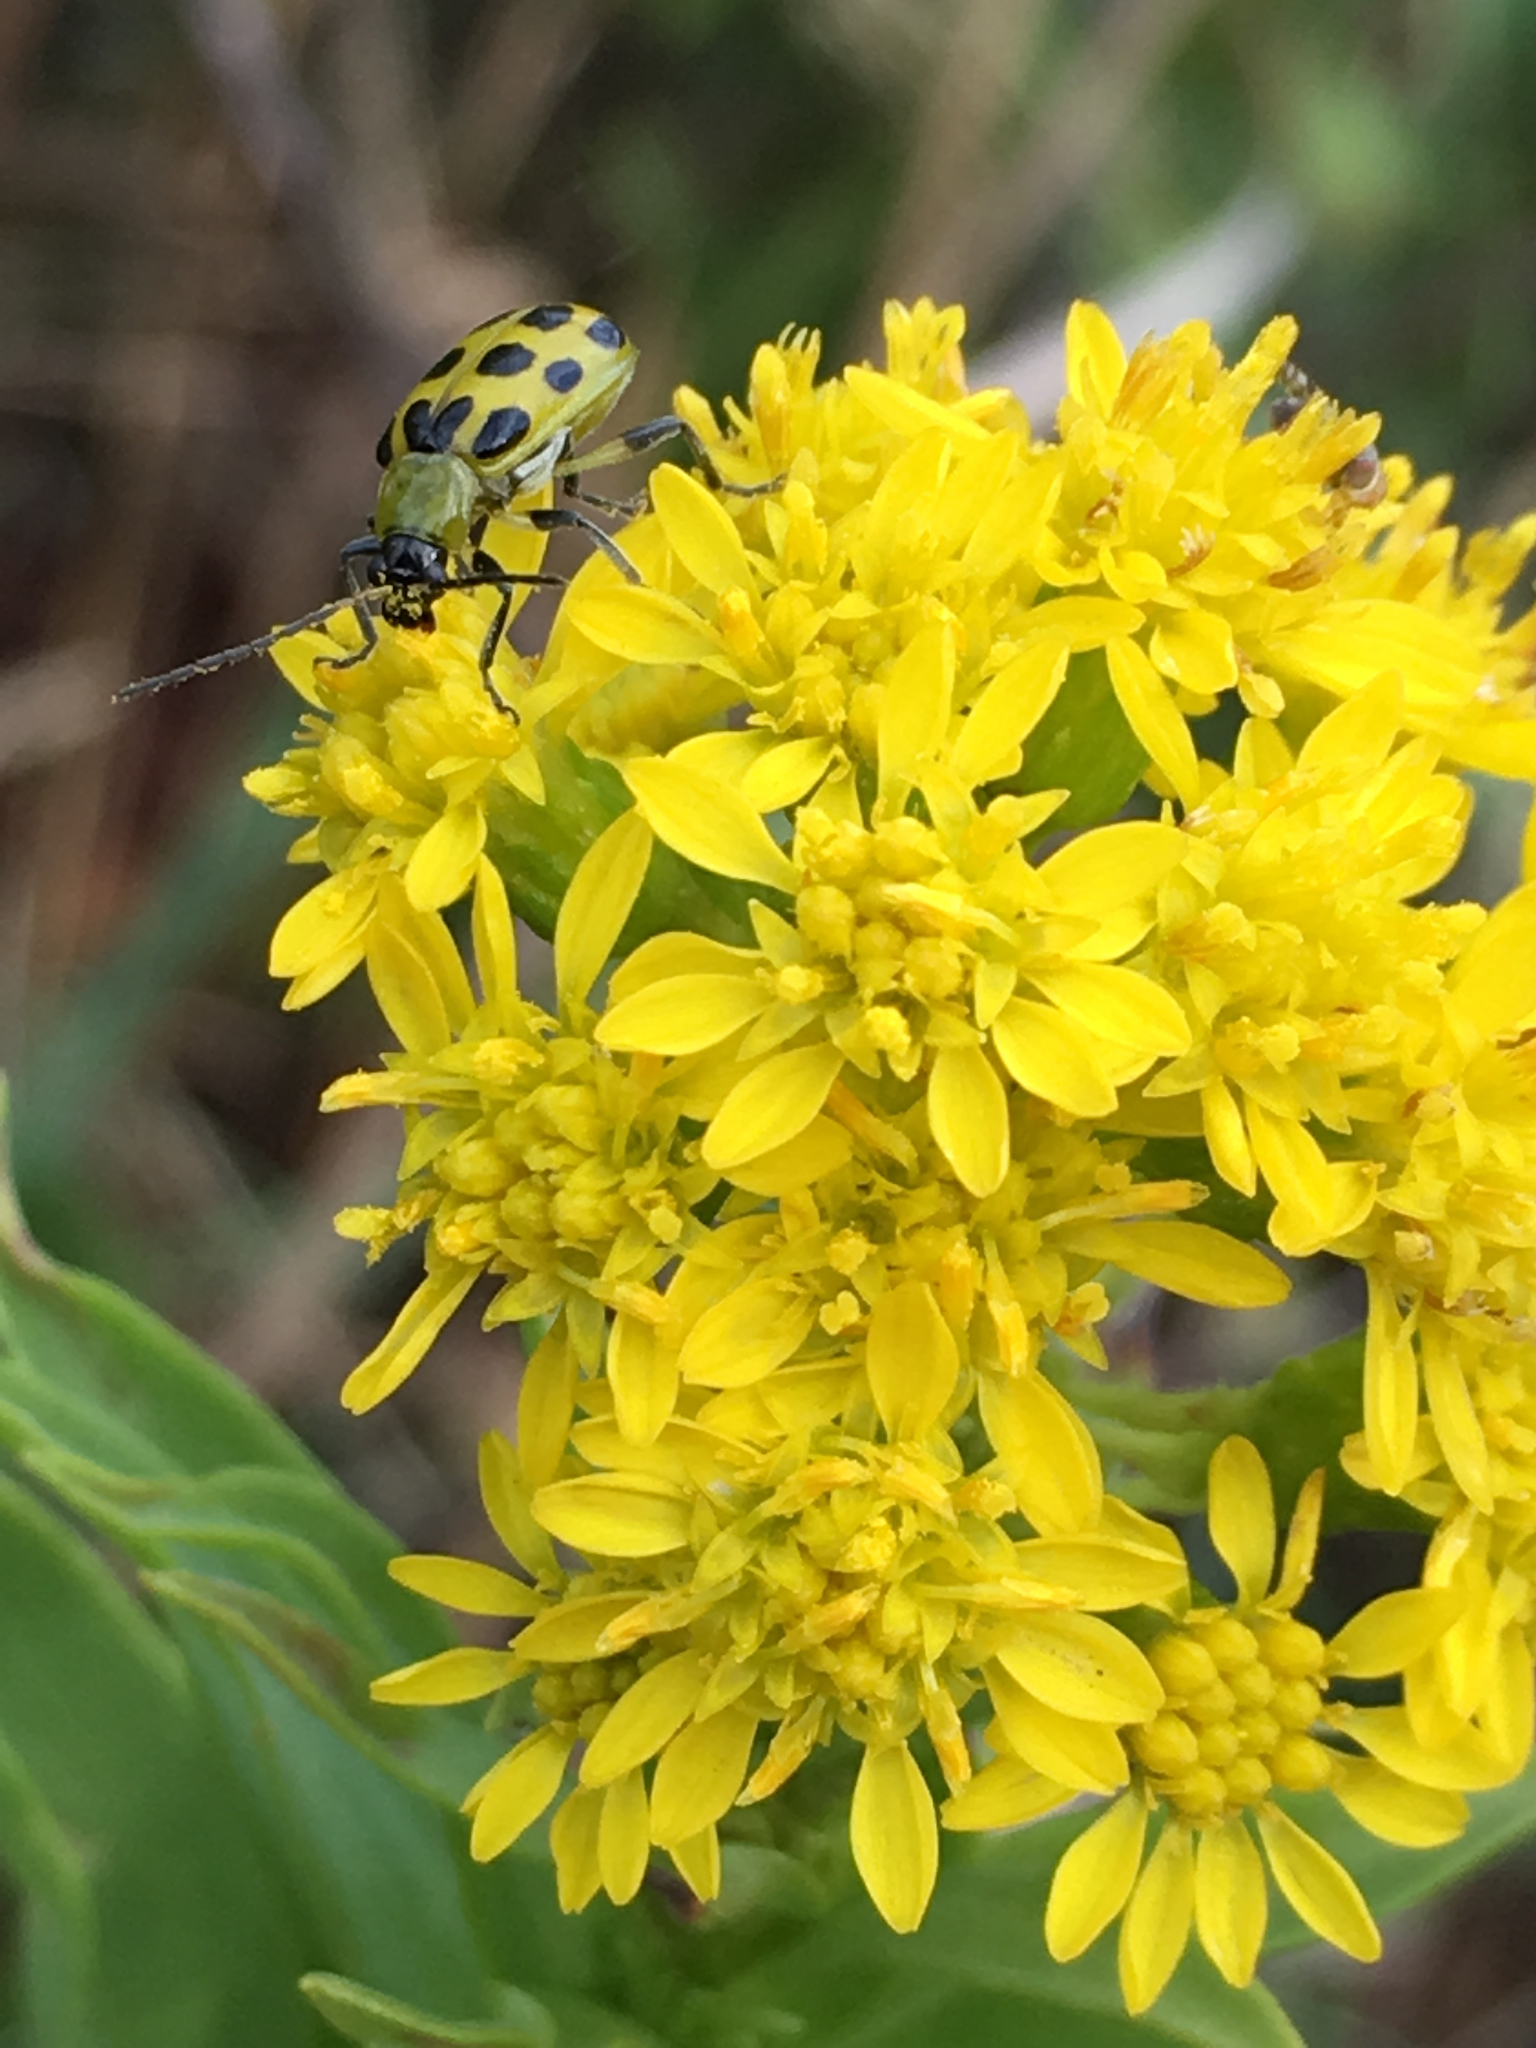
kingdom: Plantae
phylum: Tracheophyta
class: Magnoliopsida
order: Asterales
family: Asteraceae
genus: Solidago
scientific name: Solidago sempervirens
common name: Salt-marsh goldenrod
